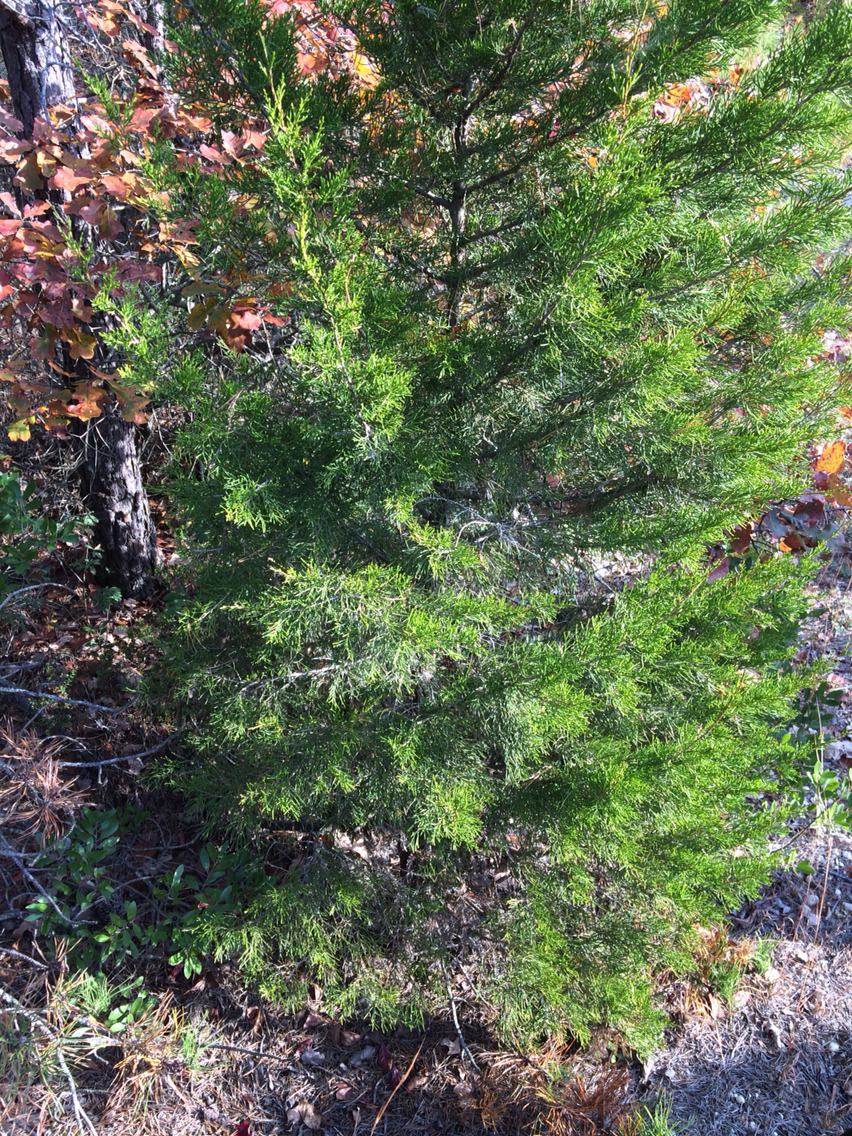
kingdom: Plantae
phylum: Tracheophyta
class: Pinopsida
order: Pinales
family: Cupressaceae
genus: Juniperus
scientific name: Juniperus virginiana
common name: Red juniper
